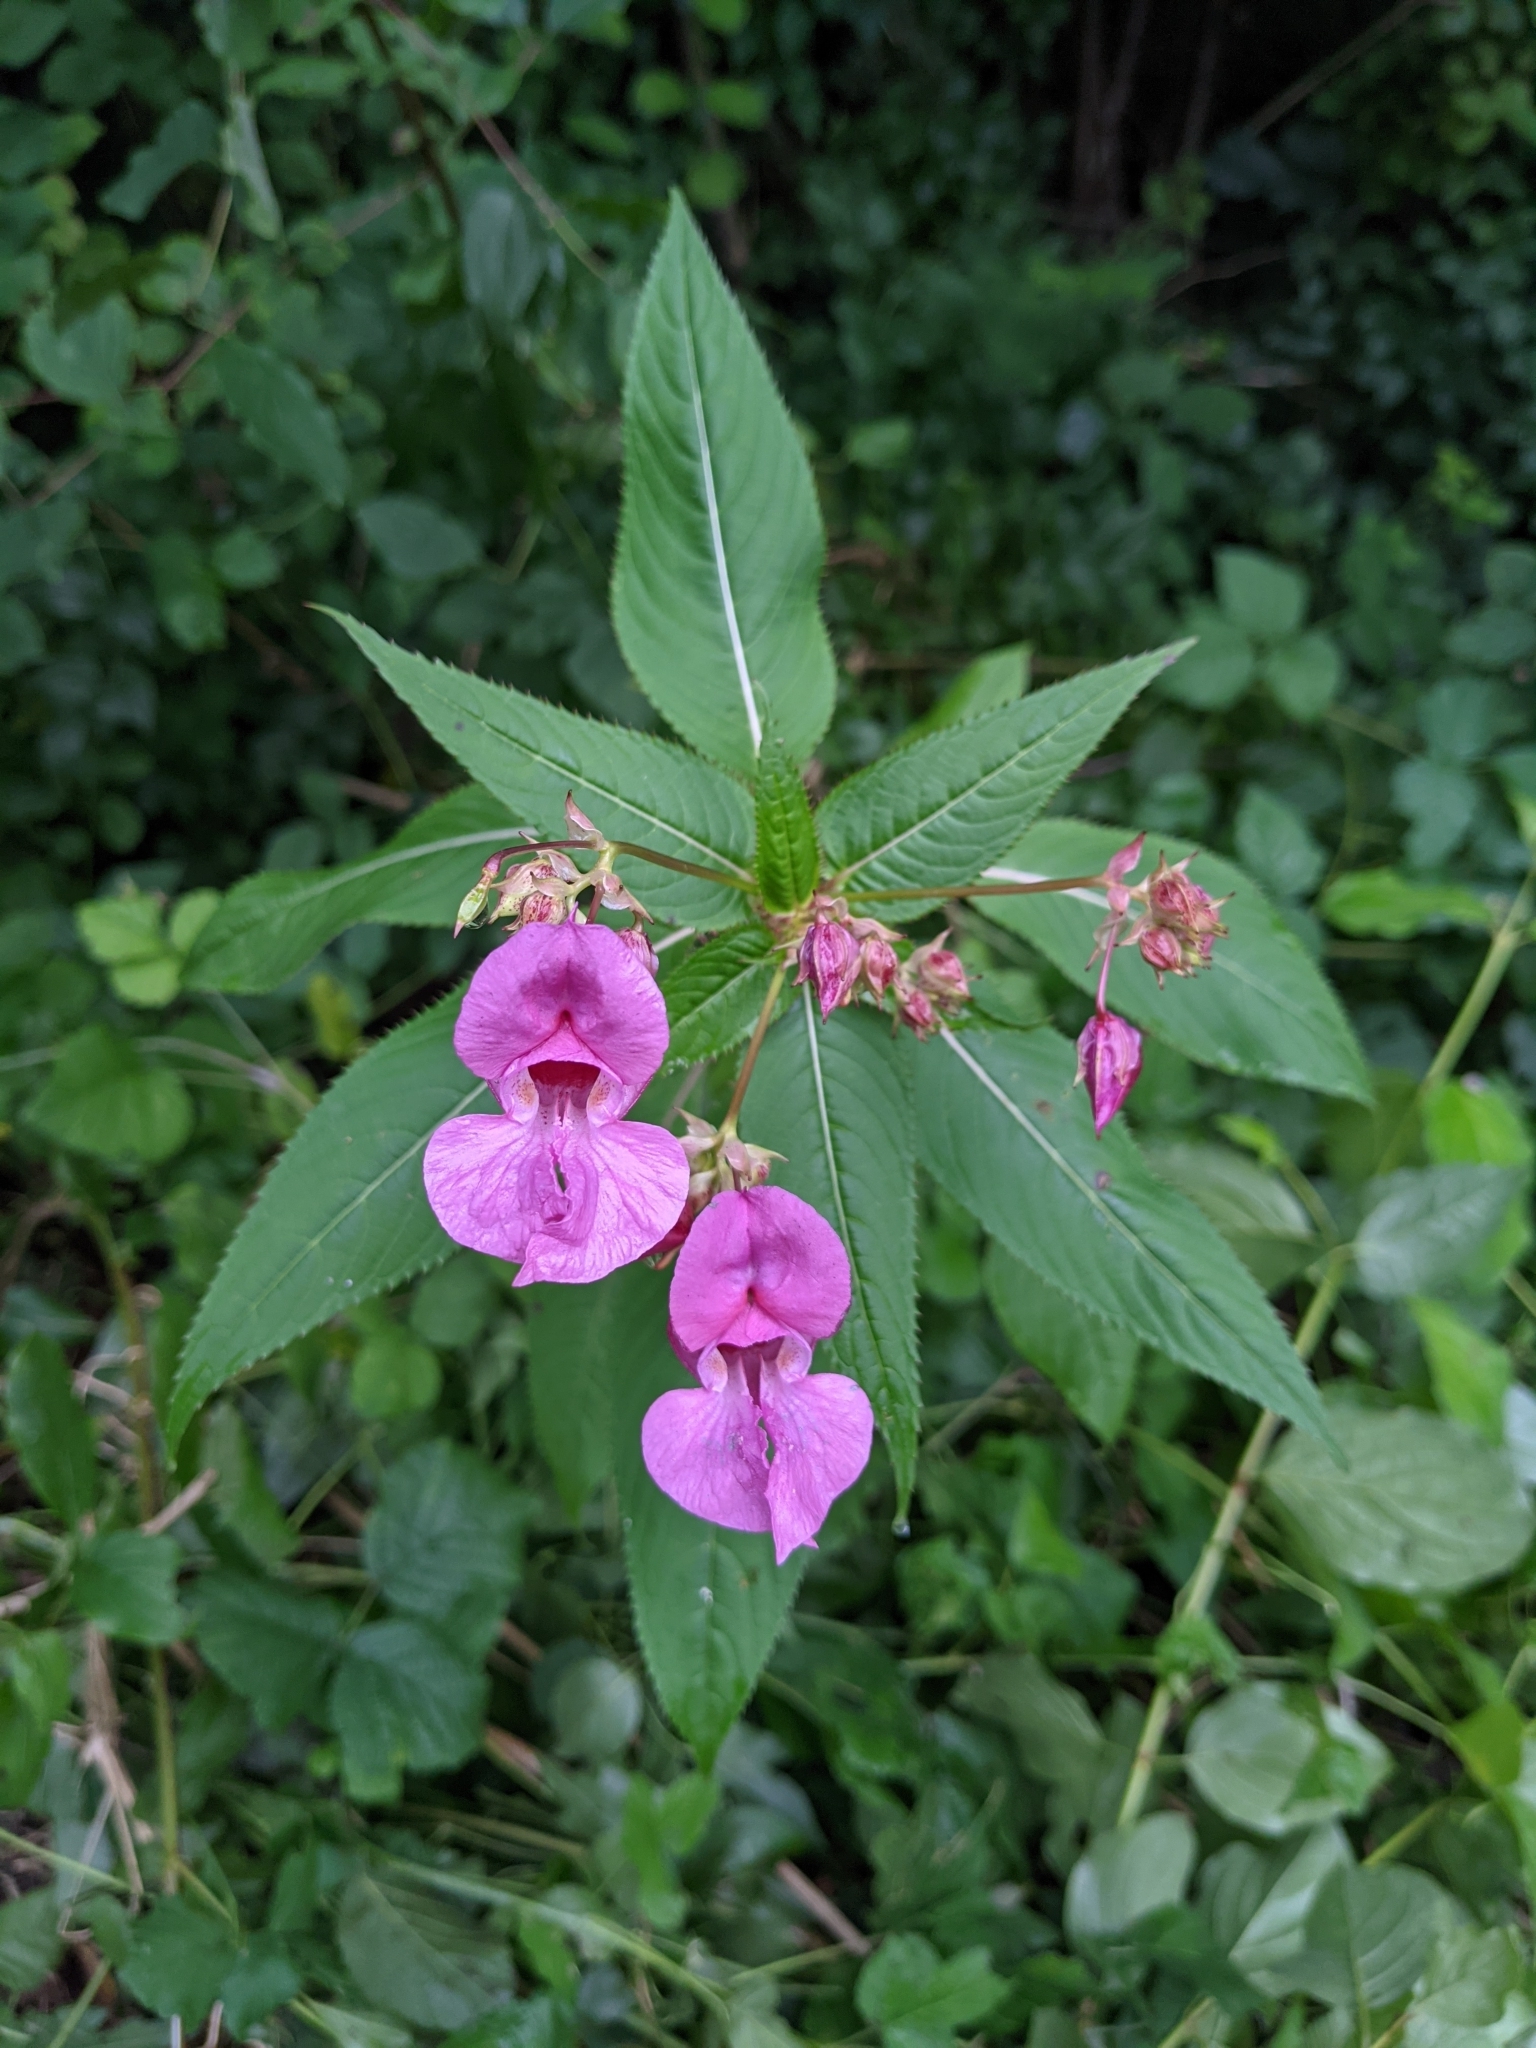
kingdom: Plantae
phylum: Tracheophyta
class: Magnoliopsida
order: Ericales
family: Balsaminaceae
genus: Impatiens
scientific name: Impatiens glandulifera
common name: Himalayan balsam
